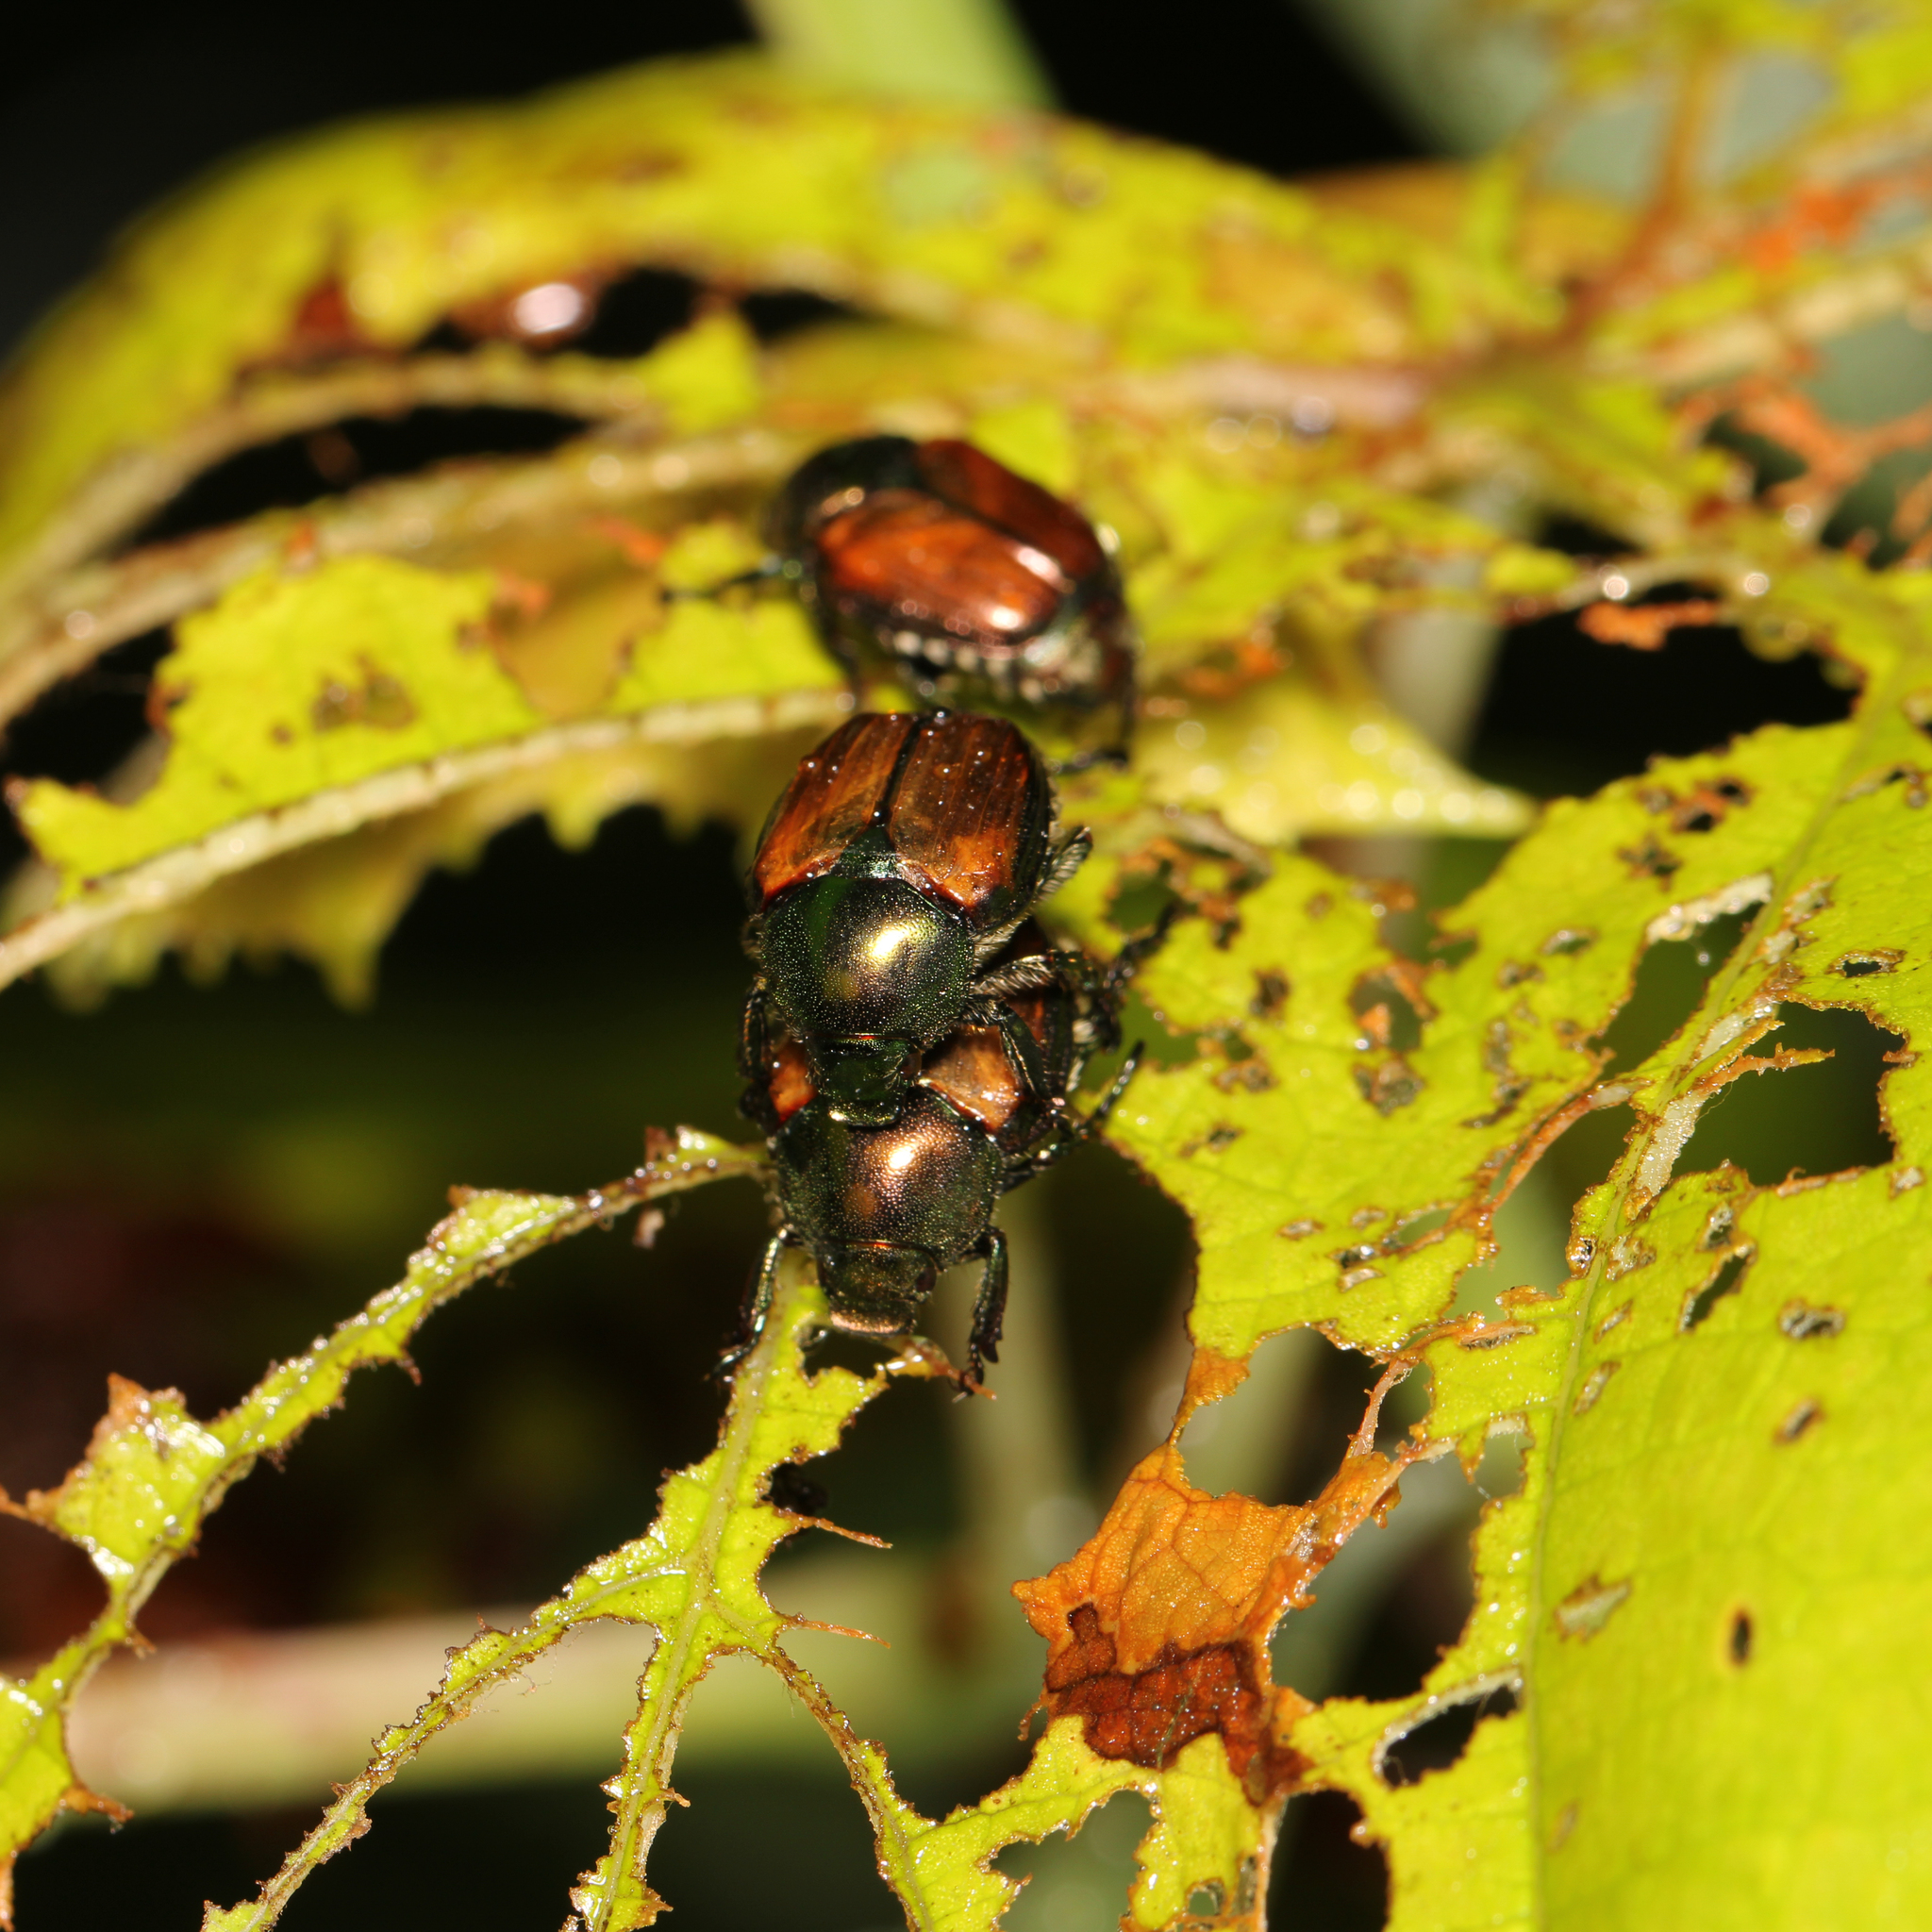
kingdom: Animalia
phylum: Arthropoda
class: Insecta
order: Coleoptera
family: Scarabaeidae
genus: Popillia
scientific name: Popillia japonica
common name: Japanese beetle
